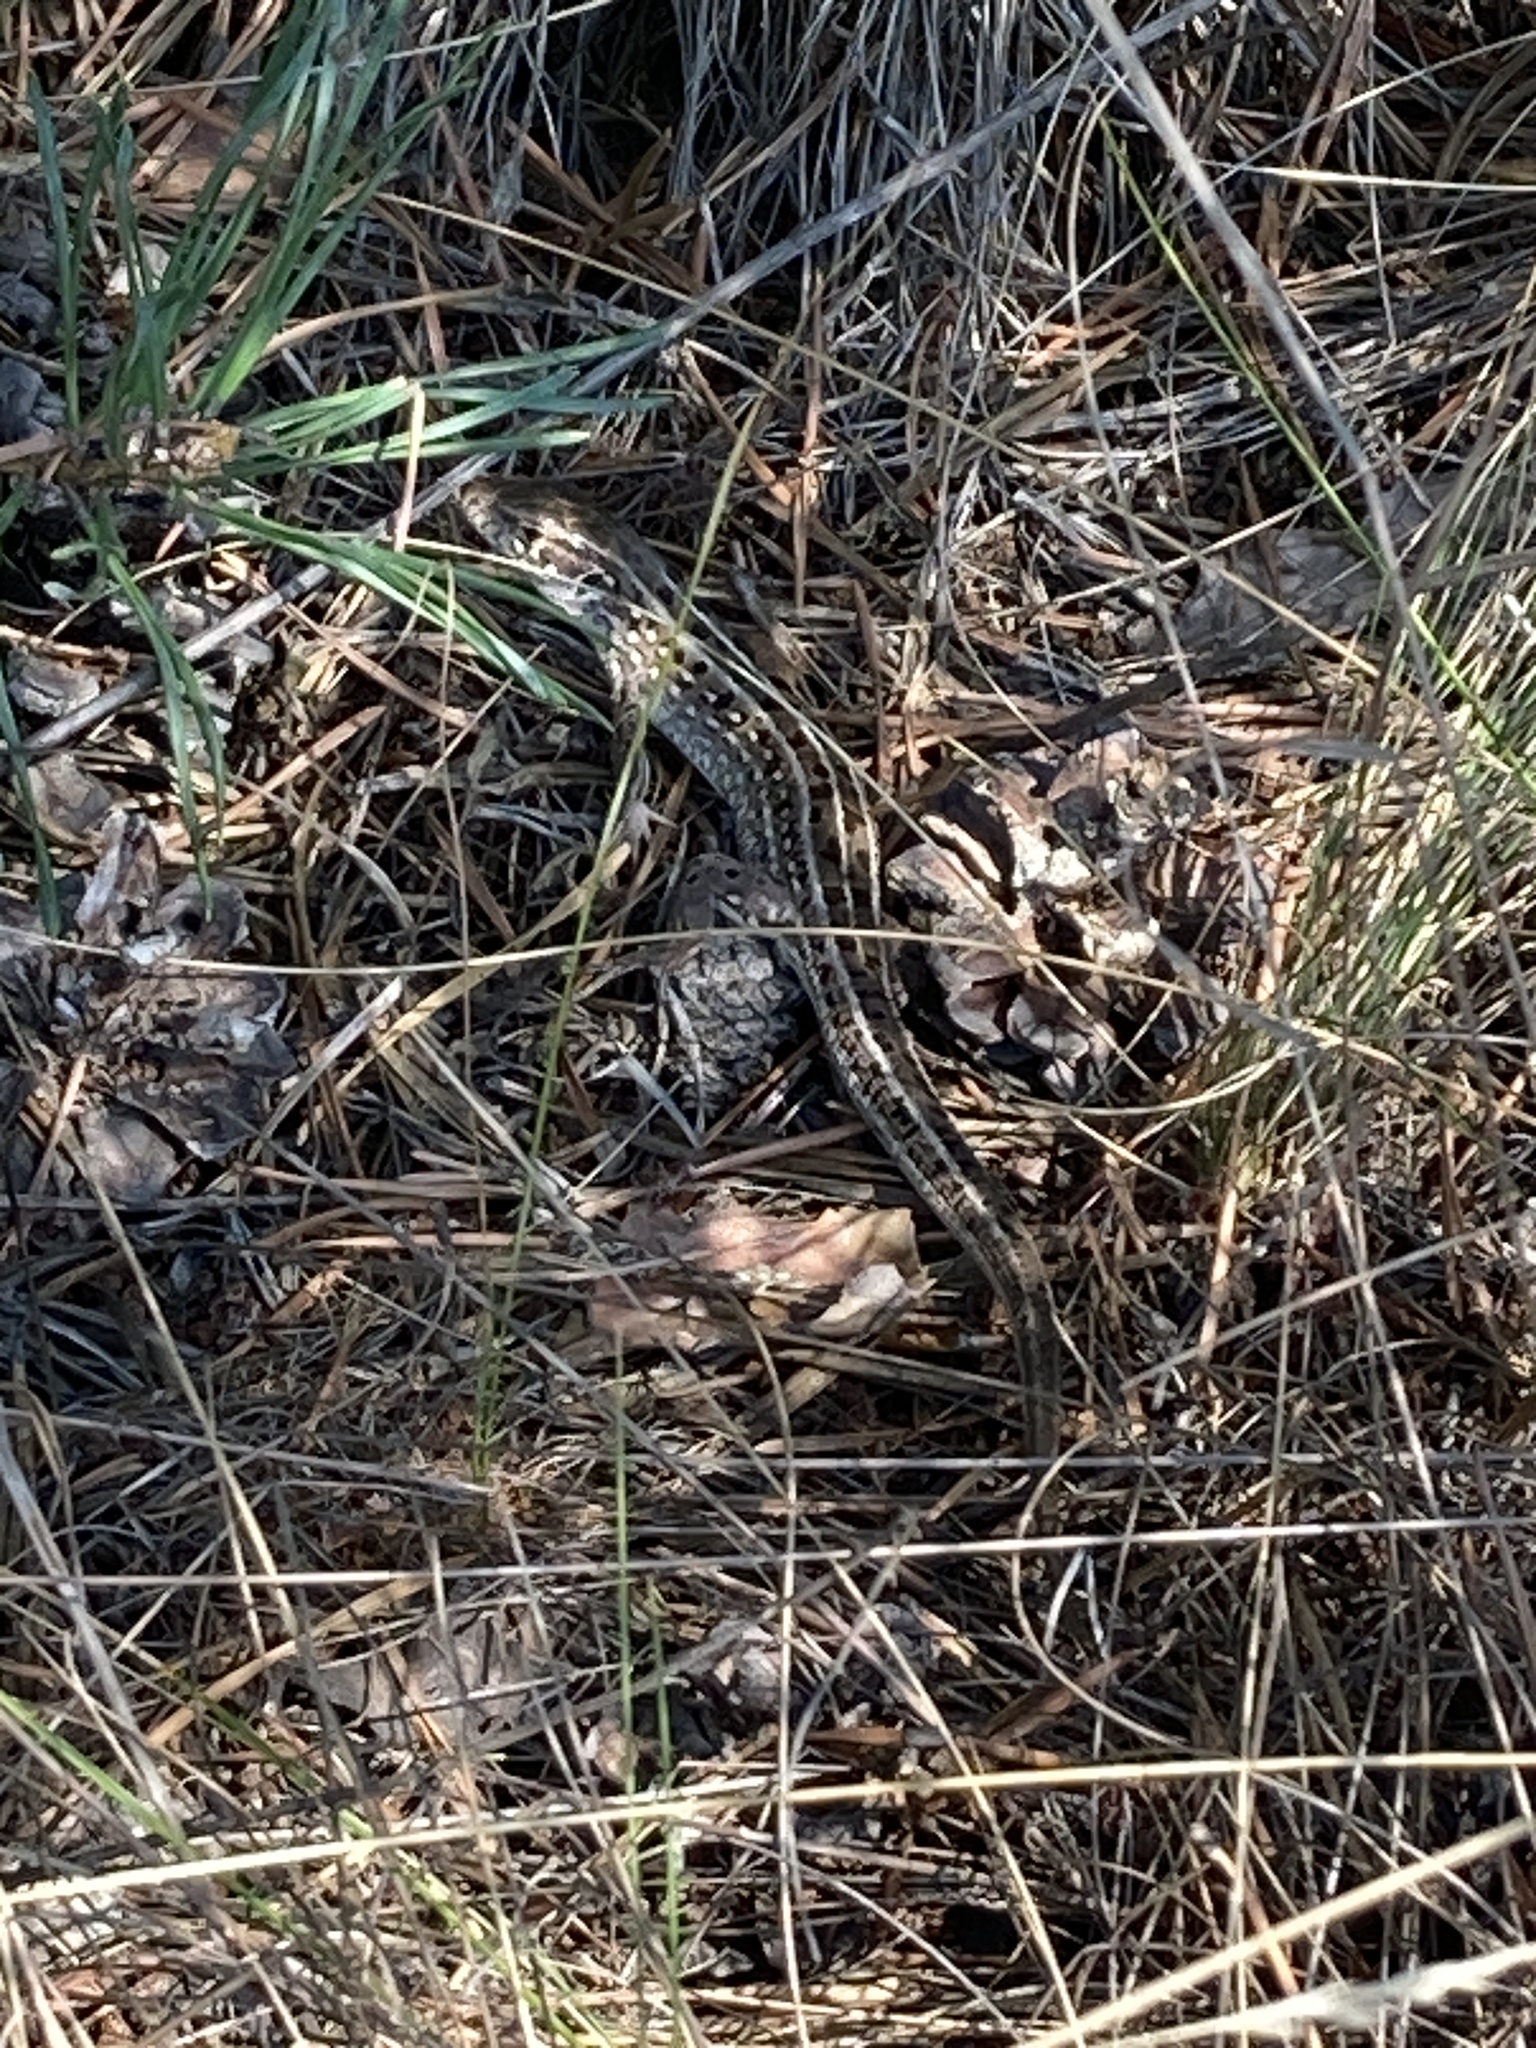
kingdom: Animalia
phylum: Chordata
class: Squamata
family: Lacertidae
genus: Lacerta
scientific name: Lacerta agilis
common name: Sand lizard
